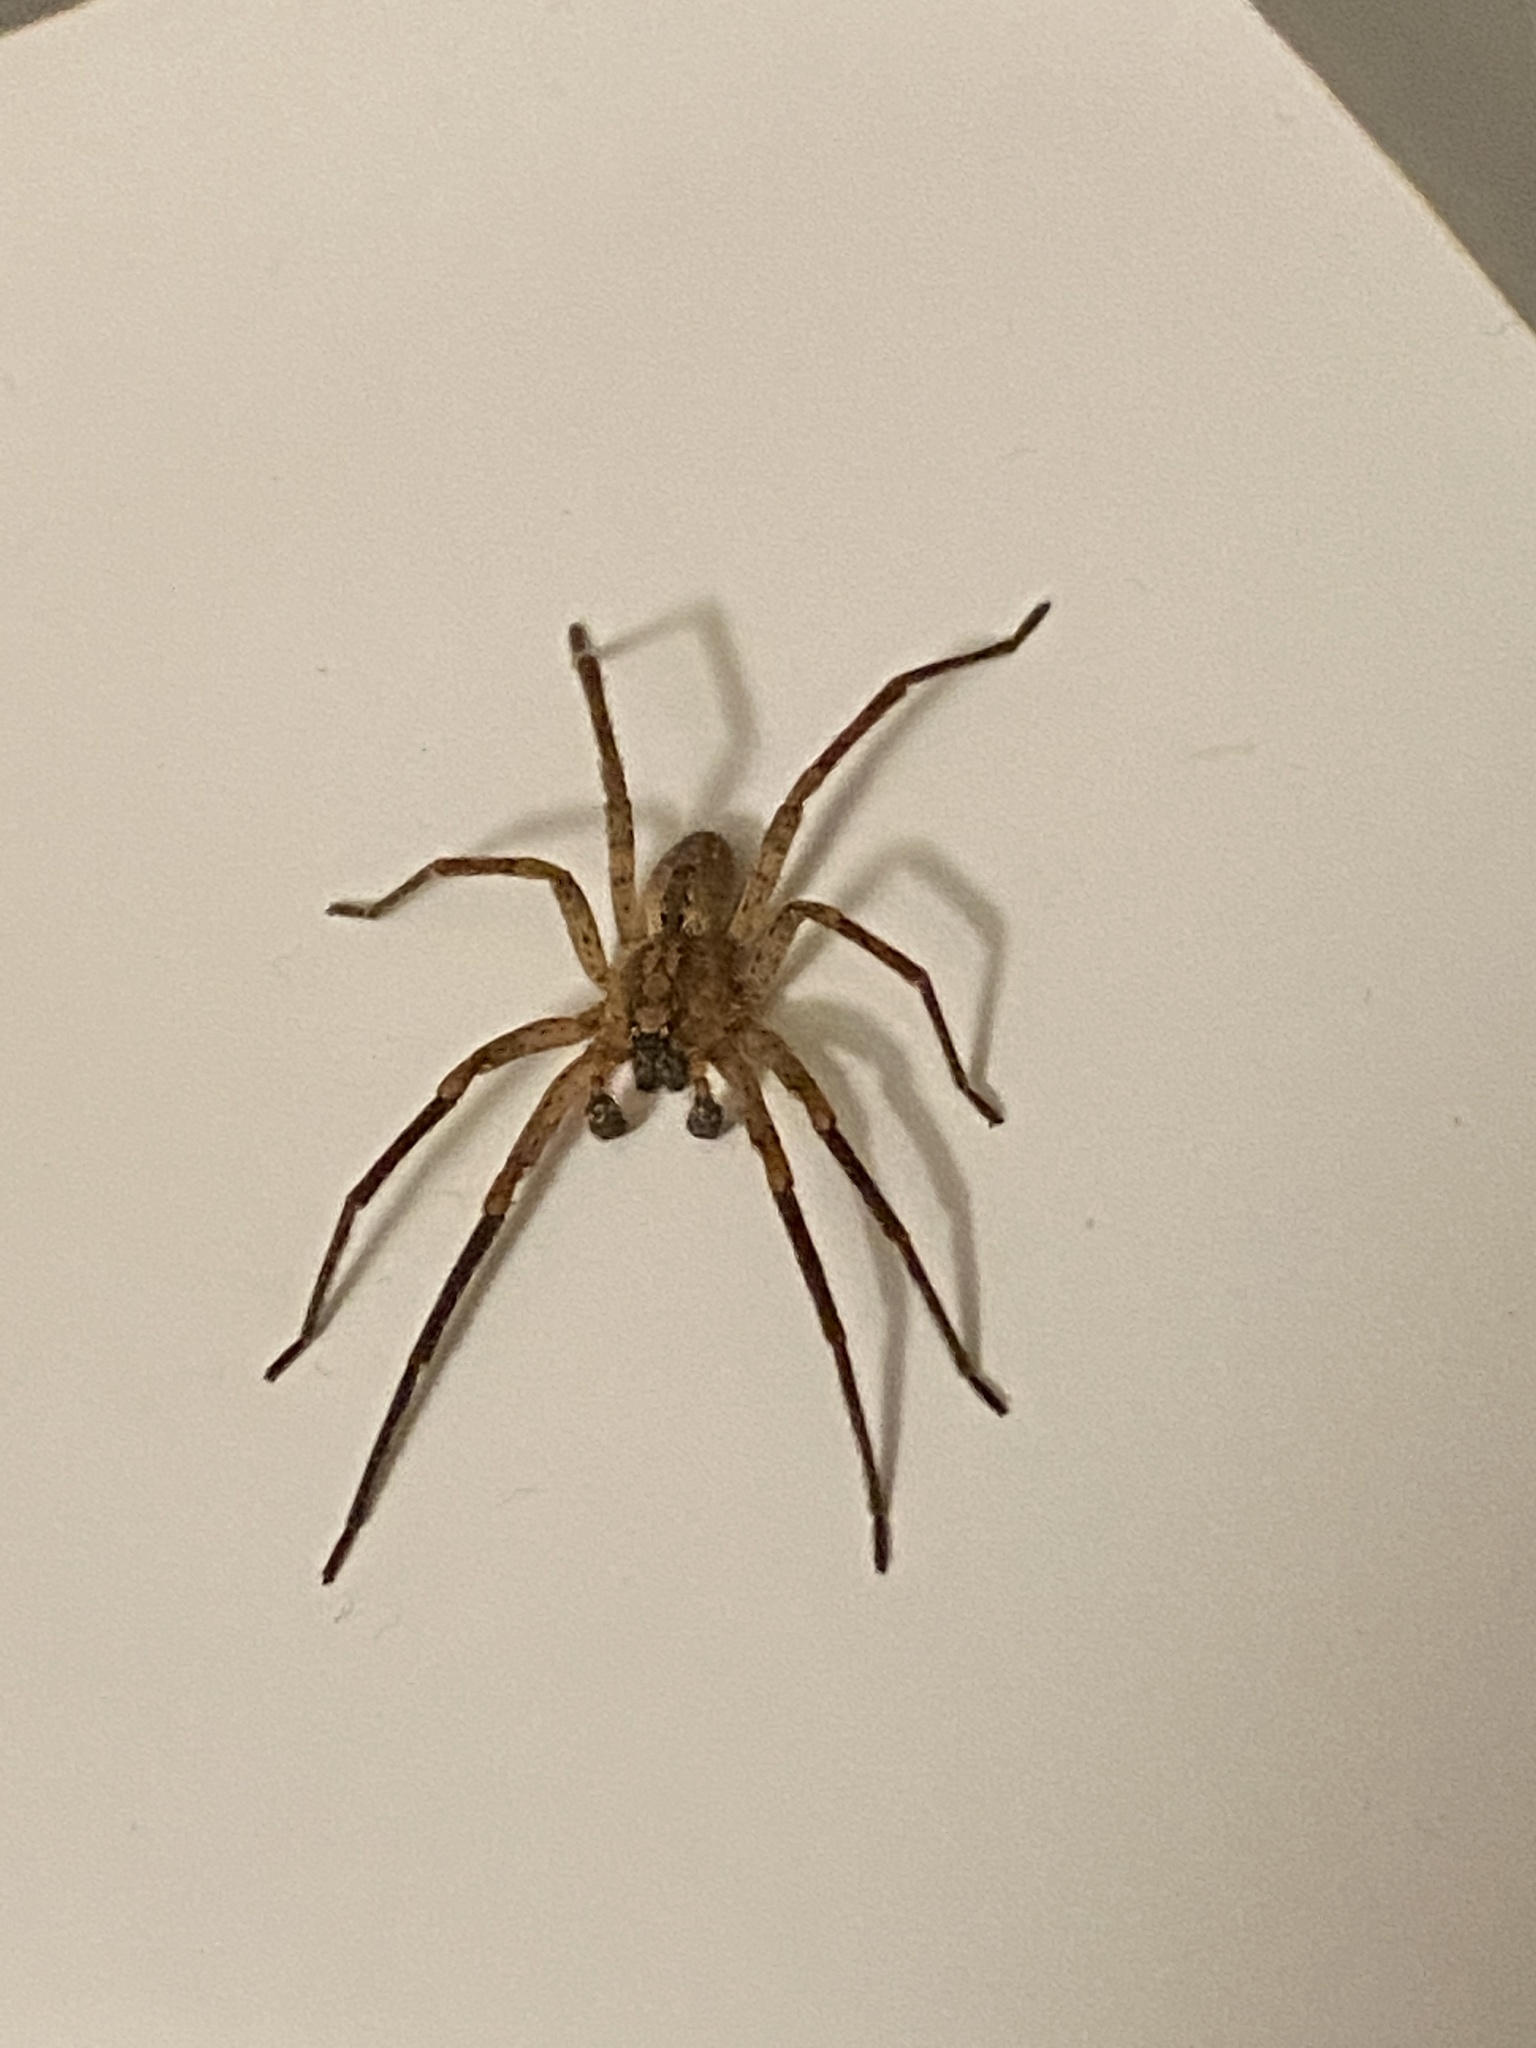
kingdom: Animalia
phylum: Arthropoda
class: Arachnida
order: Araneae
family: Zoropsidae
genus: Zoropsis
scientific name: Zoropsis spinimana
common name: Zoropsid spider
